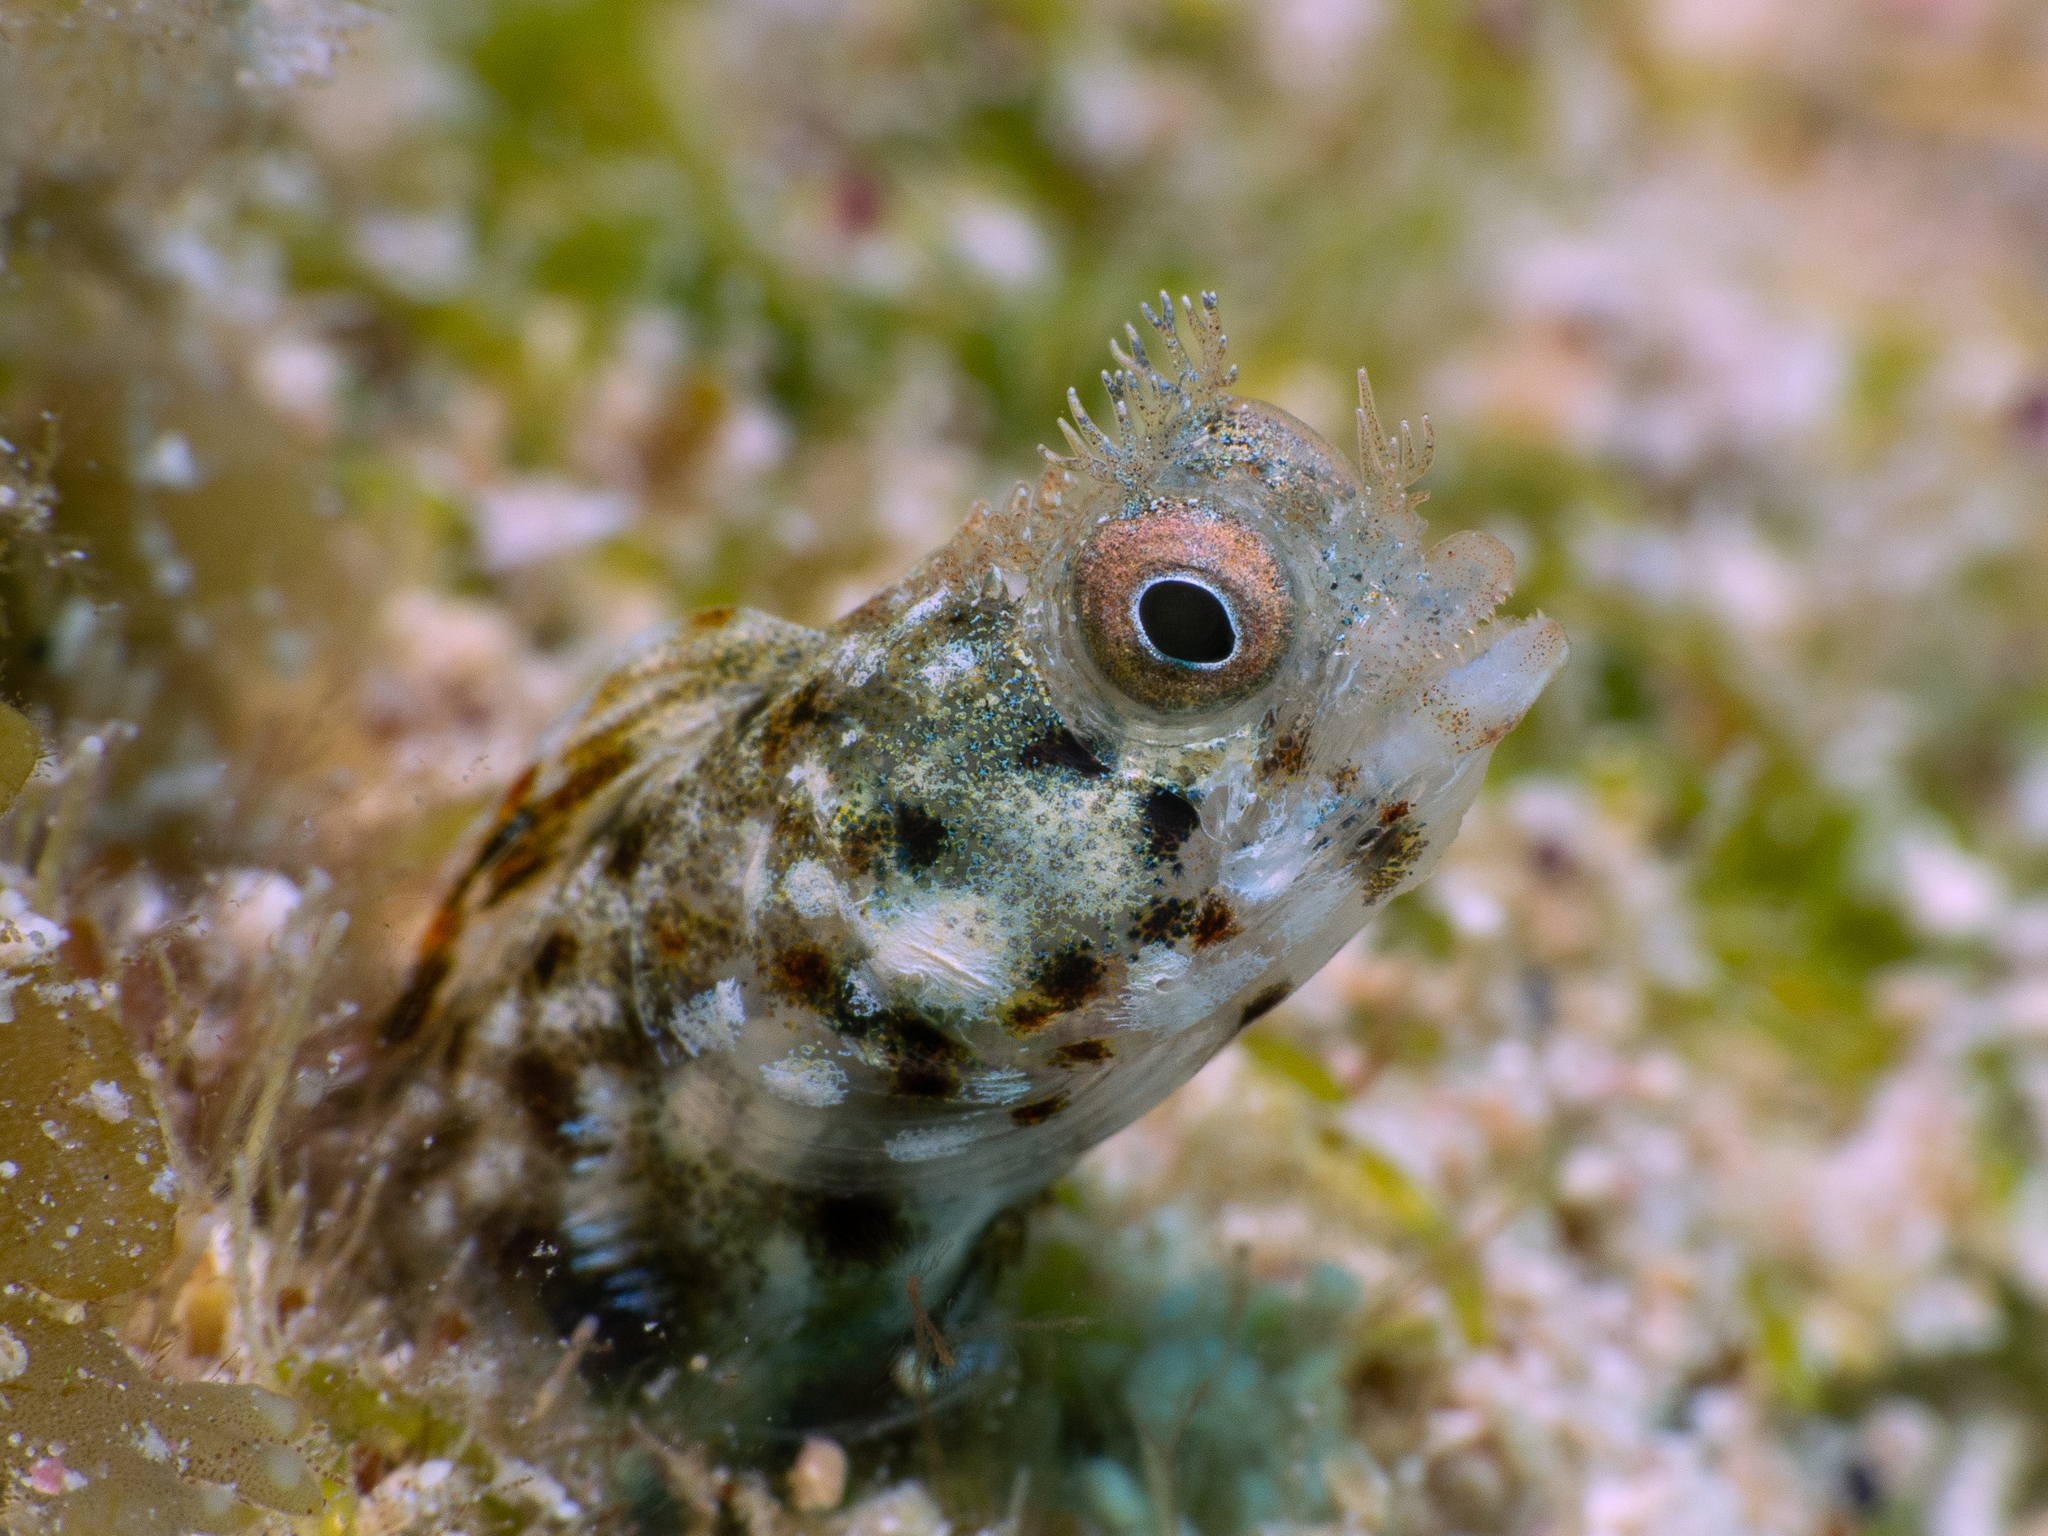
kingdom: Animalia
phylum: Chordata
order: Perciformes
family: Chaenopsidae
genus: Acanthemblemaria
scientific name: Acanthemblemaria aspera
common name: Roughhead blenny
